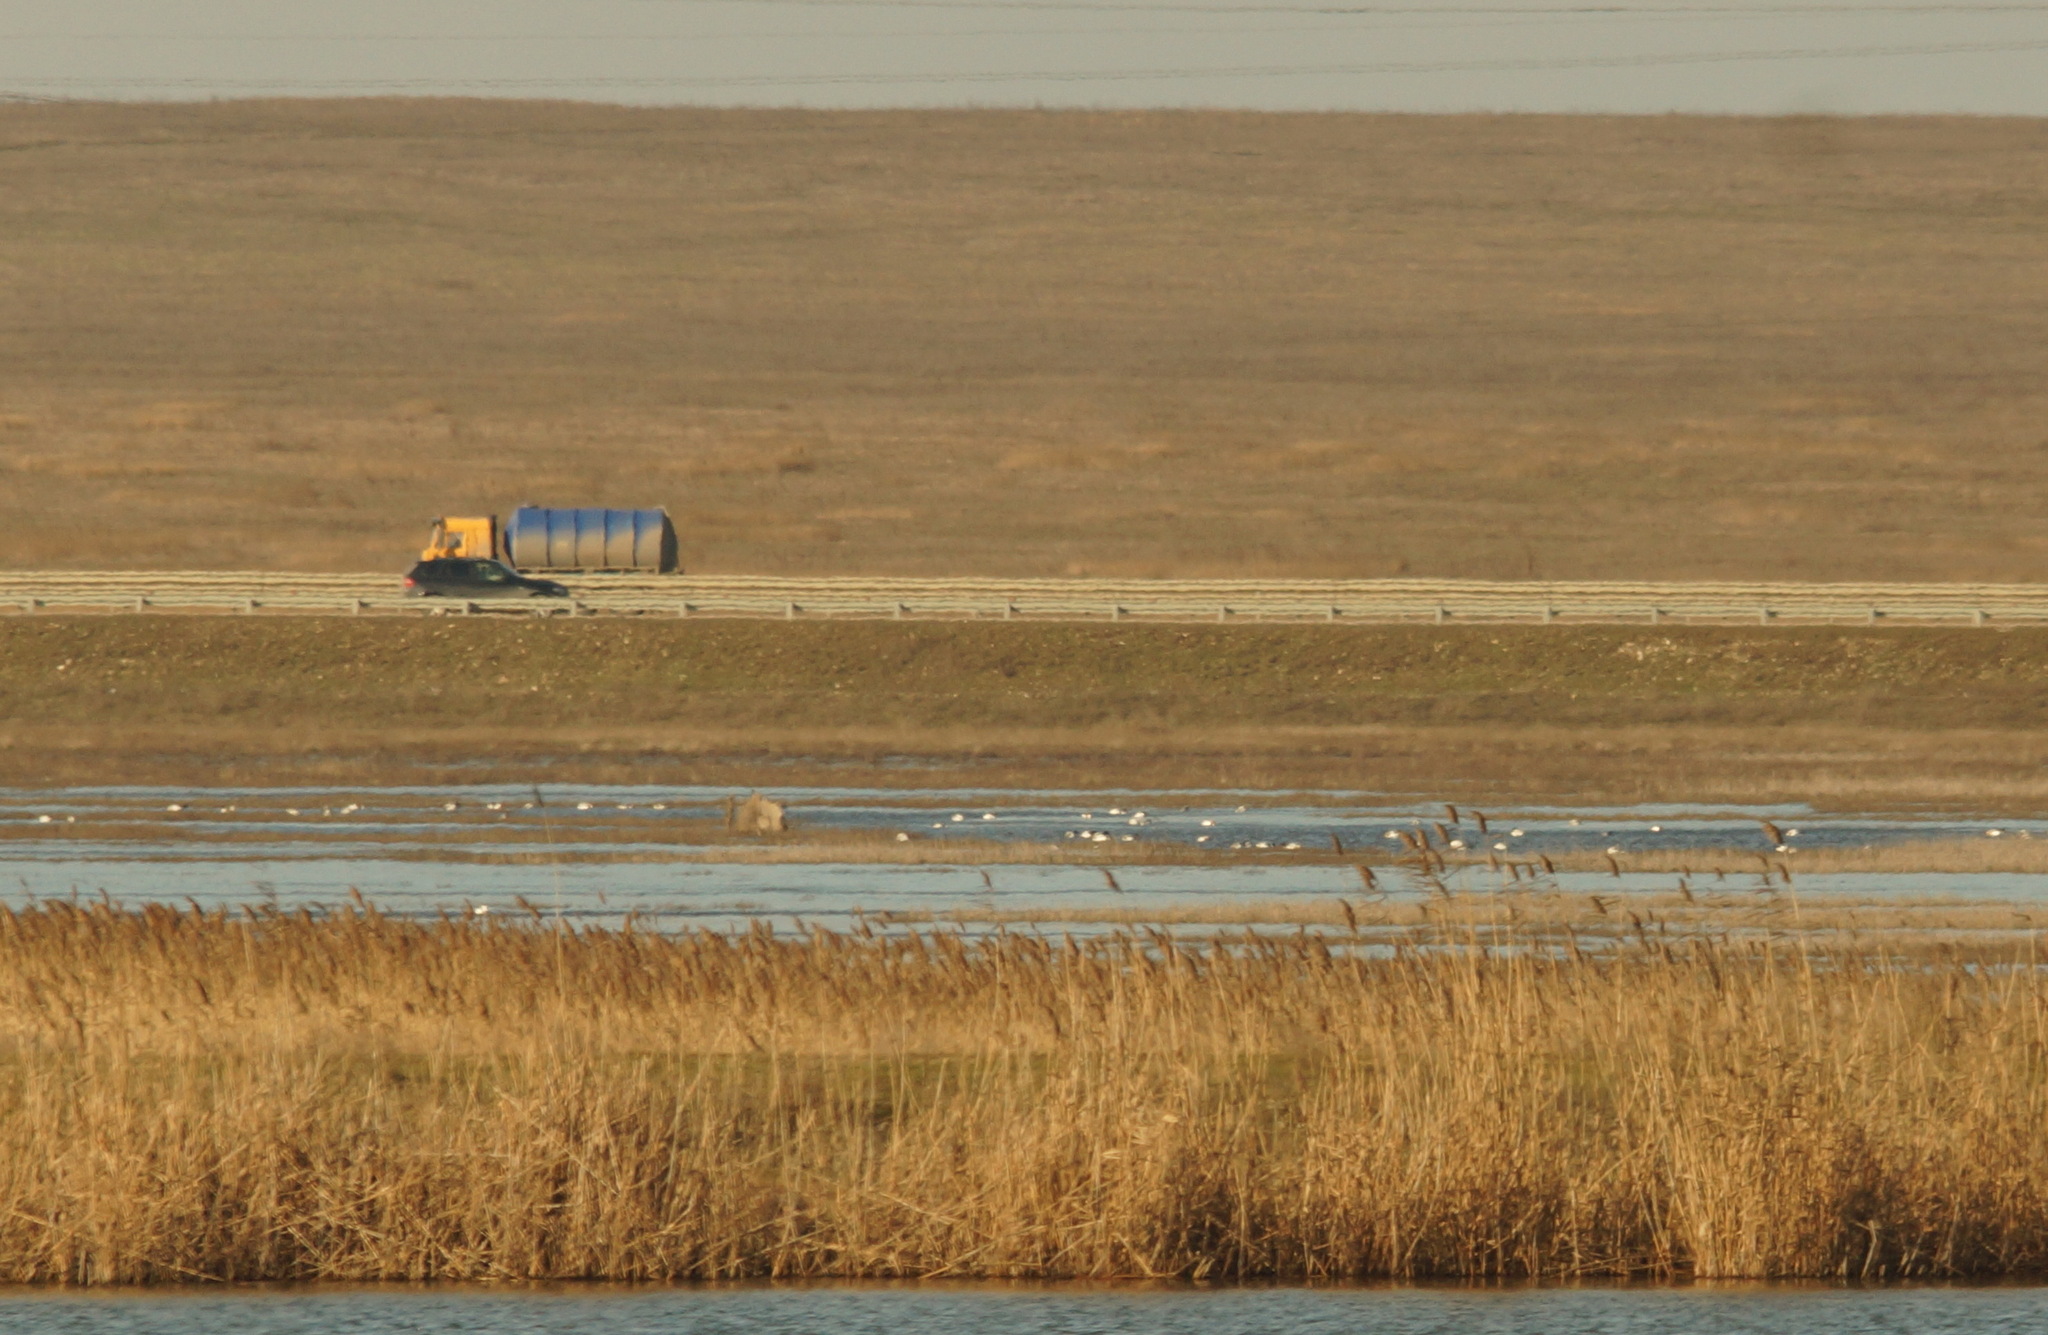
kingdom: Animalia
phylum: Chordata
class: Aves
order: Anseriformes
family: Anatidae
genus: Tadorna
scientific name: Tadorna tadorna
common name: Common shelduck
